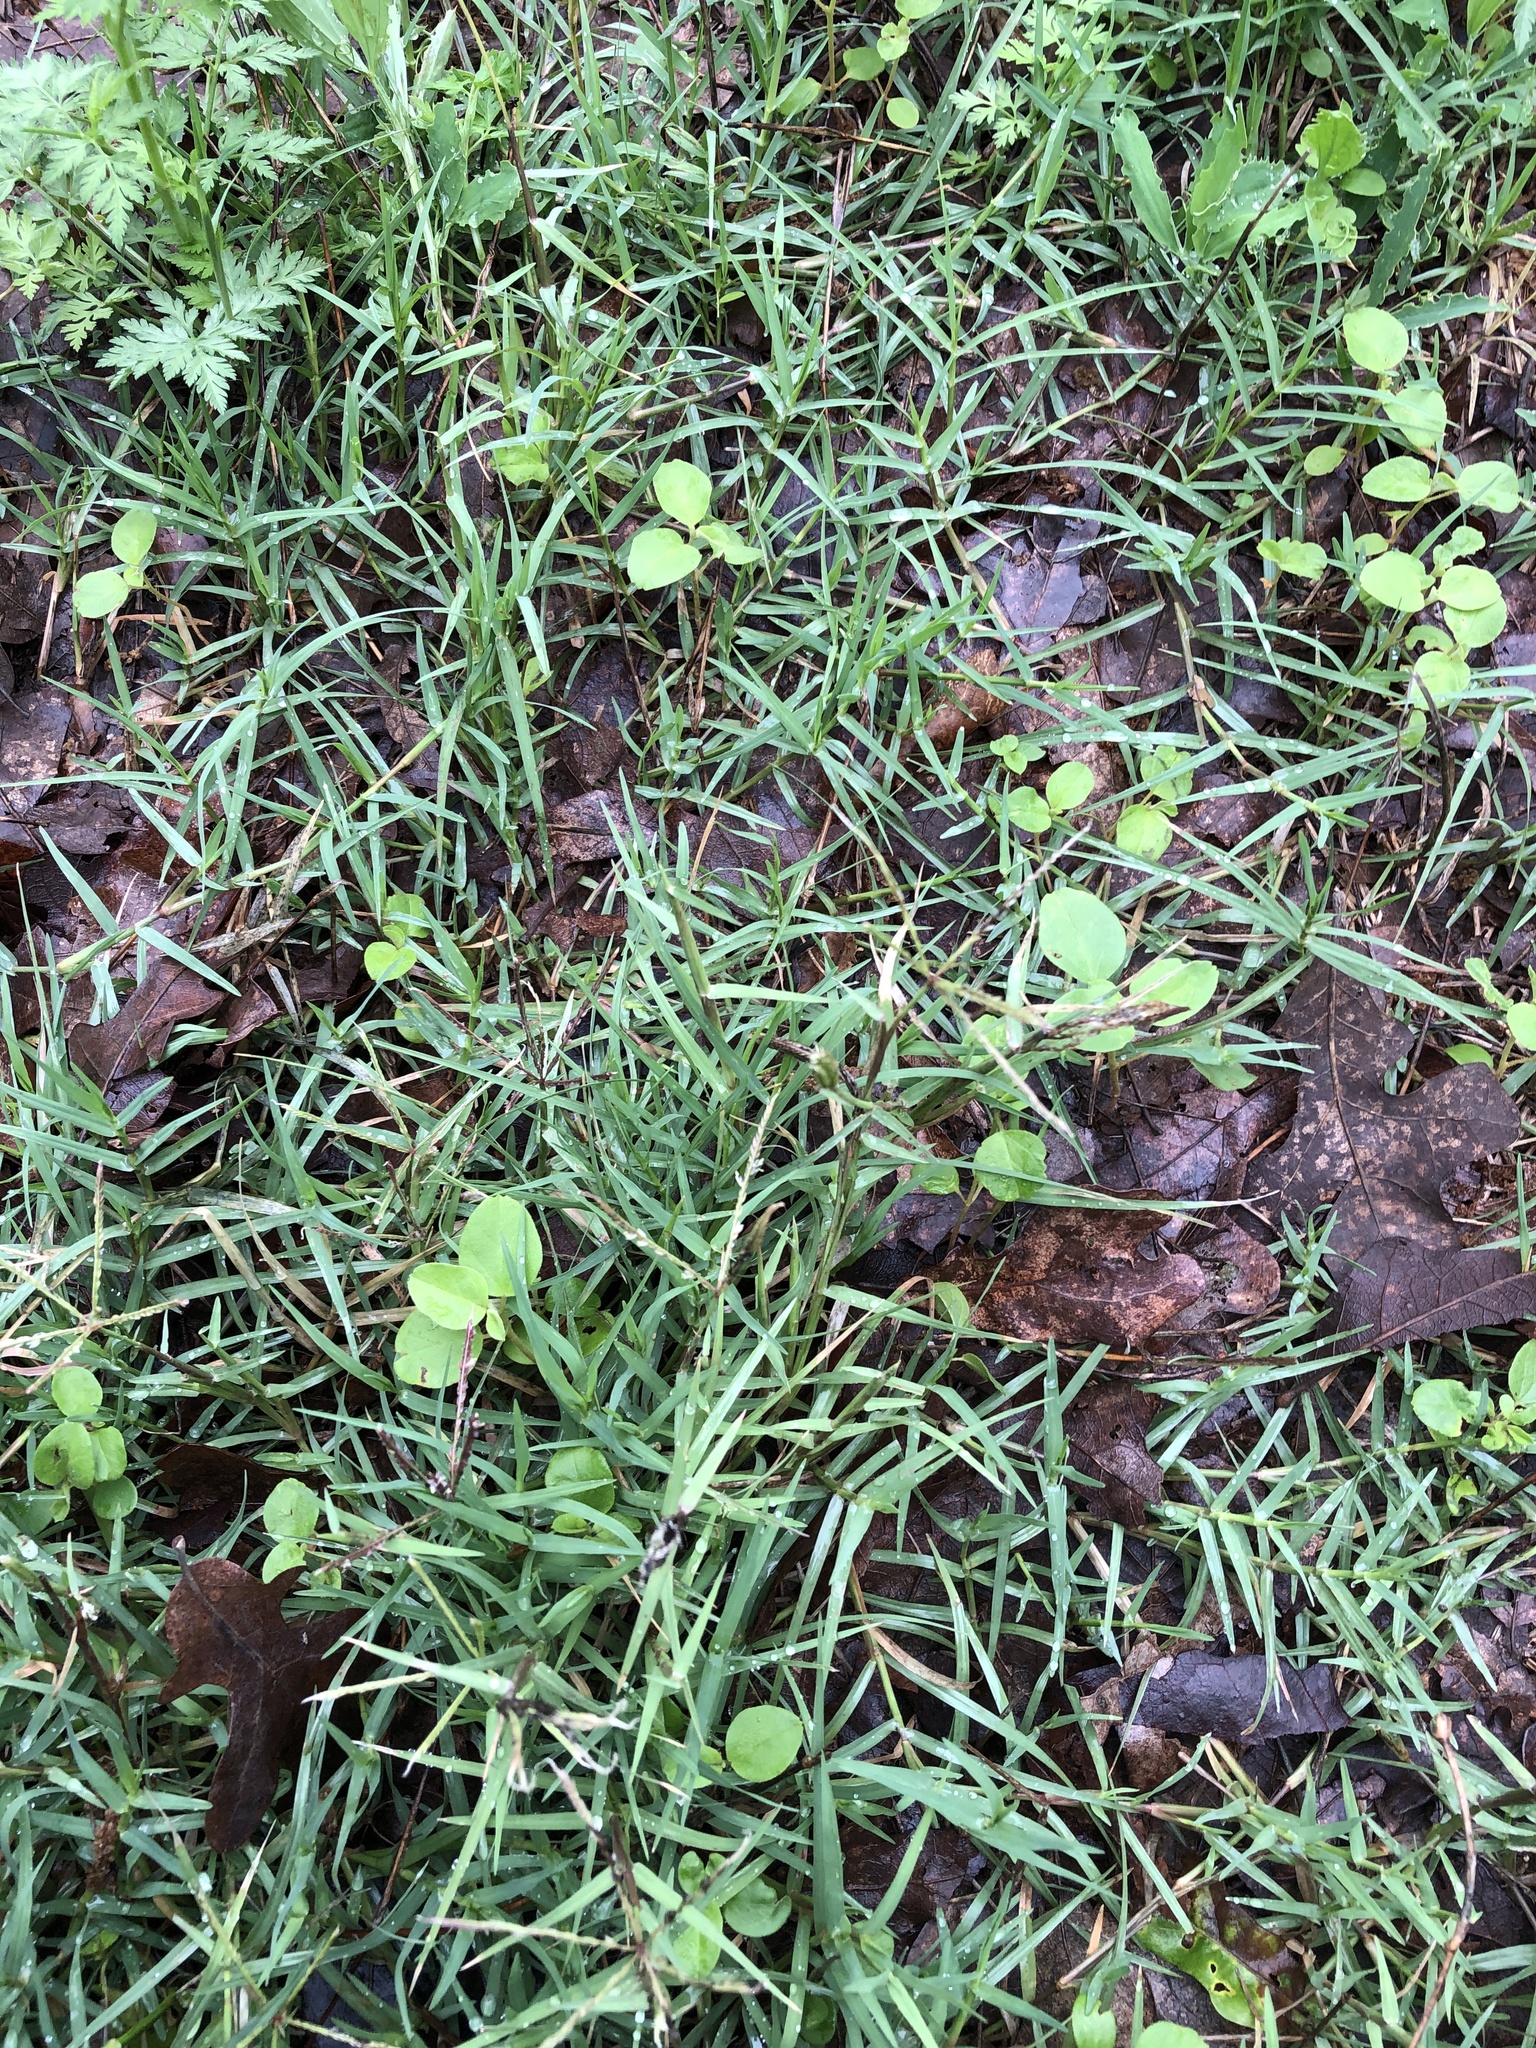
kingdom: Plantae
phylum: Tracheophyta
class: Liliopsida
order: Poales
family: Poaceae
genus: Cynodon
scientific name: Cynodon dactylon
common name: Bermuda grass
